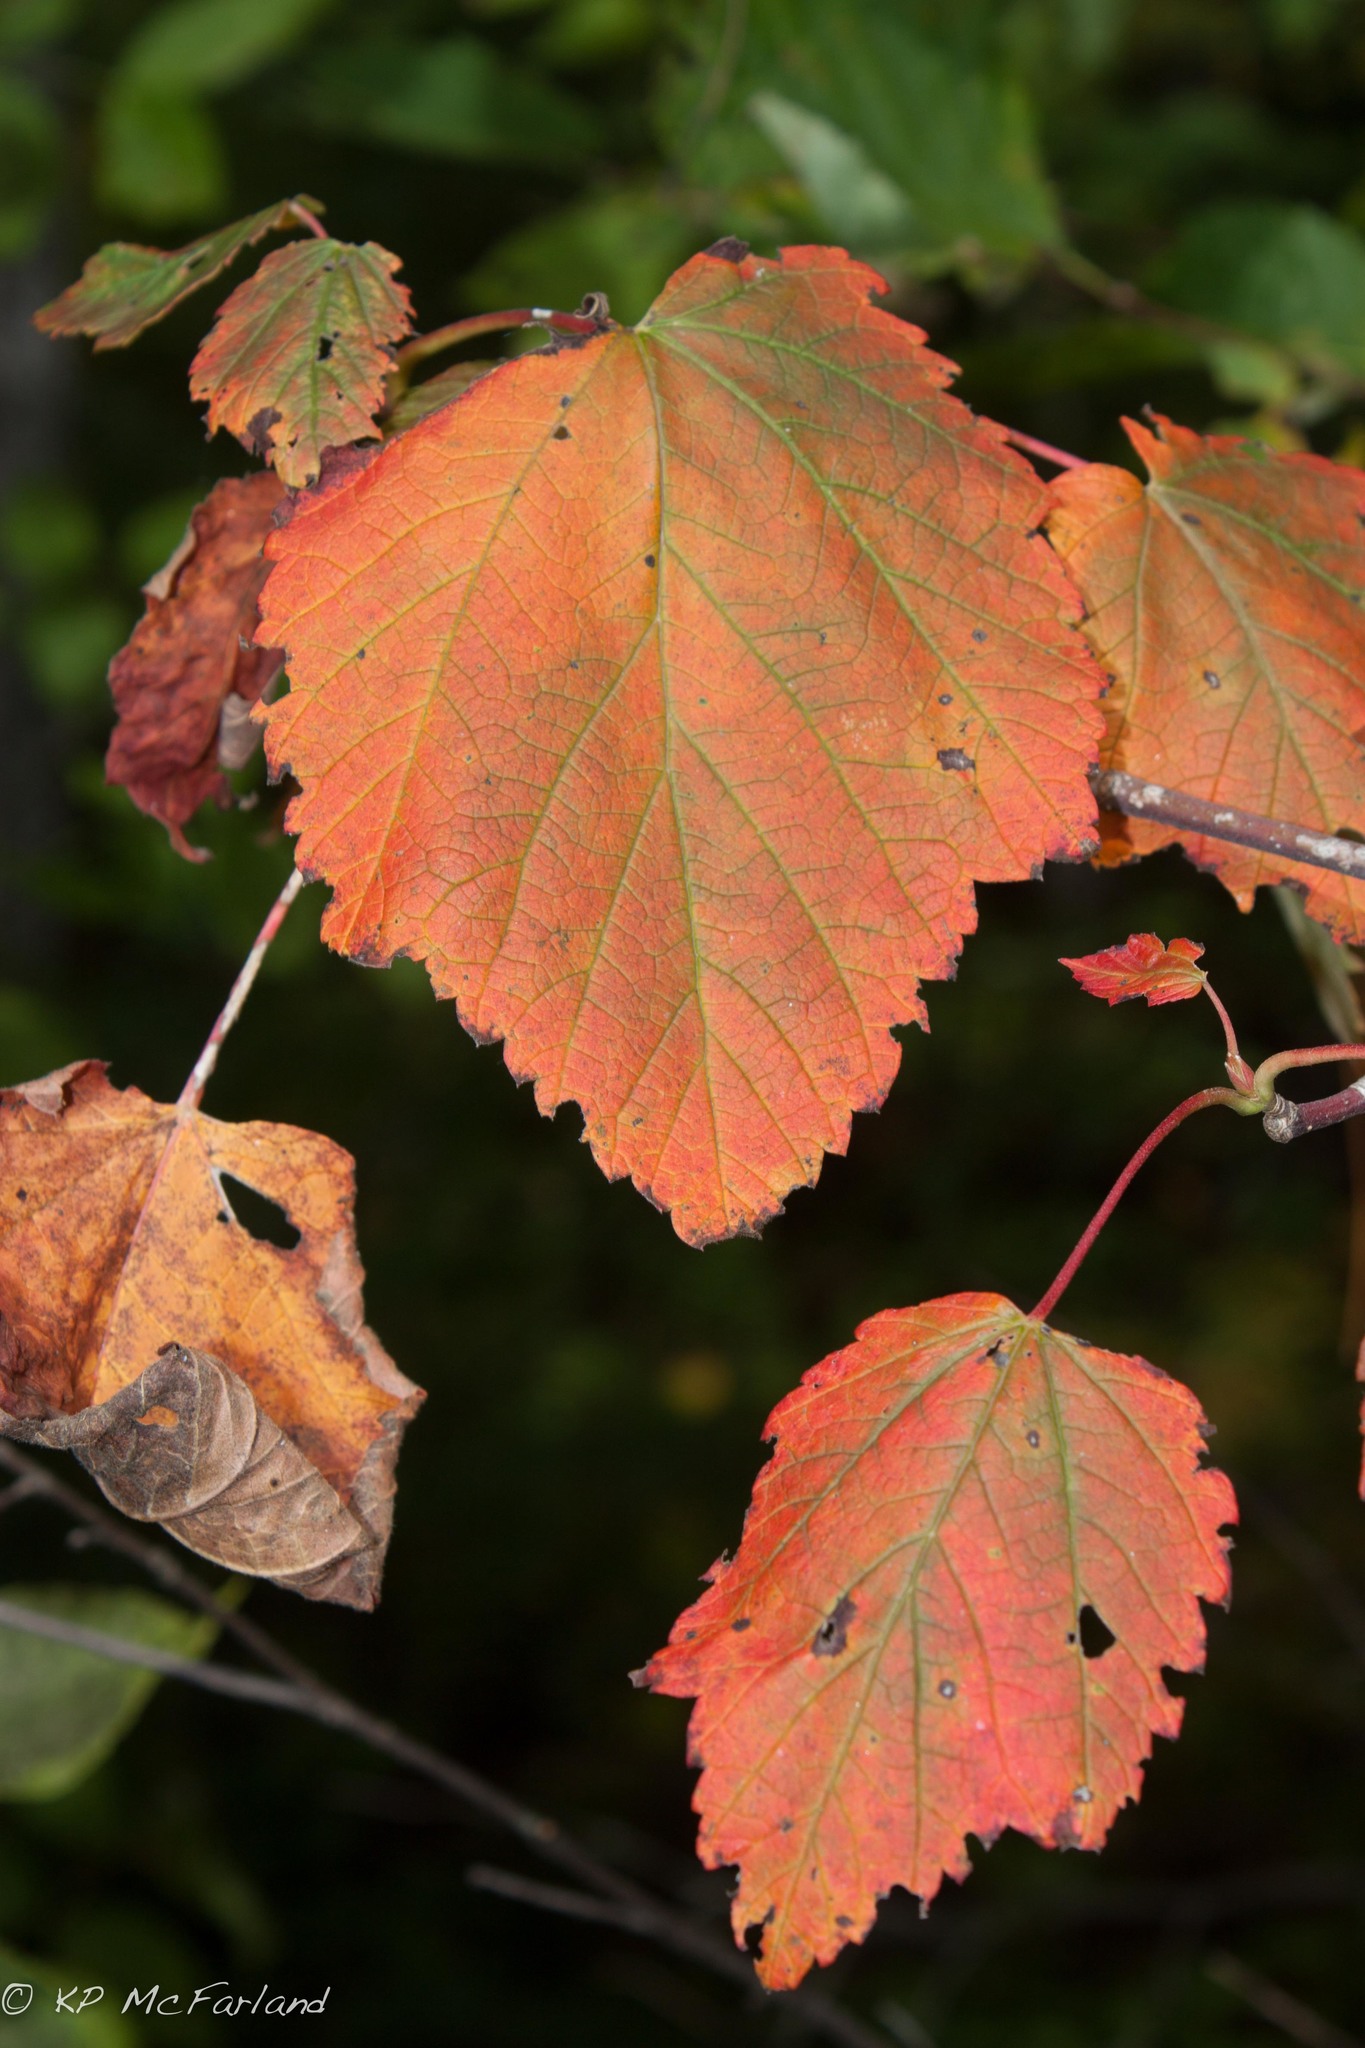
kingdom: Plantae
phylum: Tracheophyta
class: Magnoliopsida
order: Sapindales
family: Sapindaceae
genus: Acer
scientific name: Acer spicatum
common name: Mountain maple
